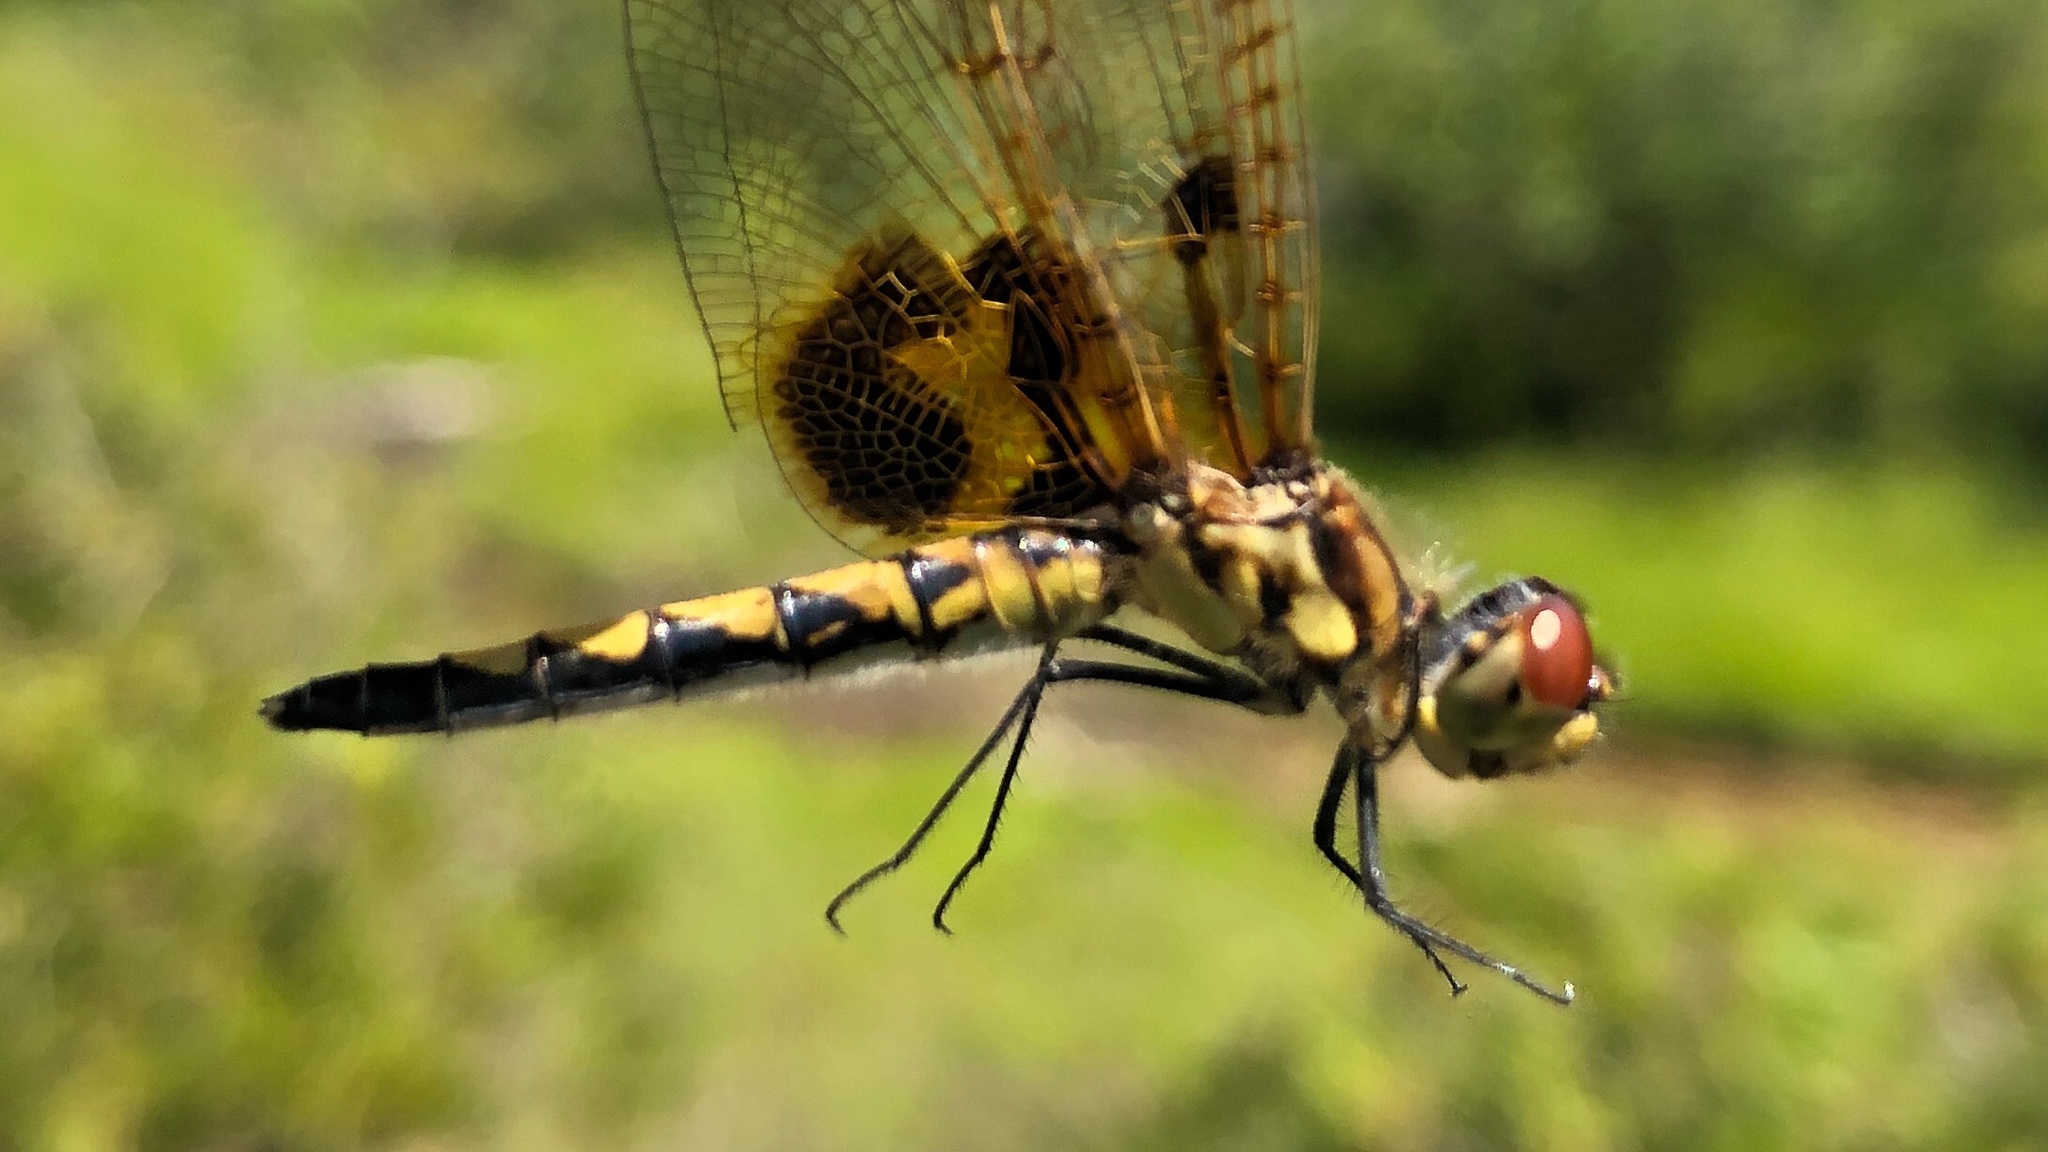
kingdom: Animalia
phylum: Arthropoda
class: Insecta
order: Odonata
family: Libellulidae
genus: Celithemis
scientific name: Celithemis elisa
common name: Calico pennant
